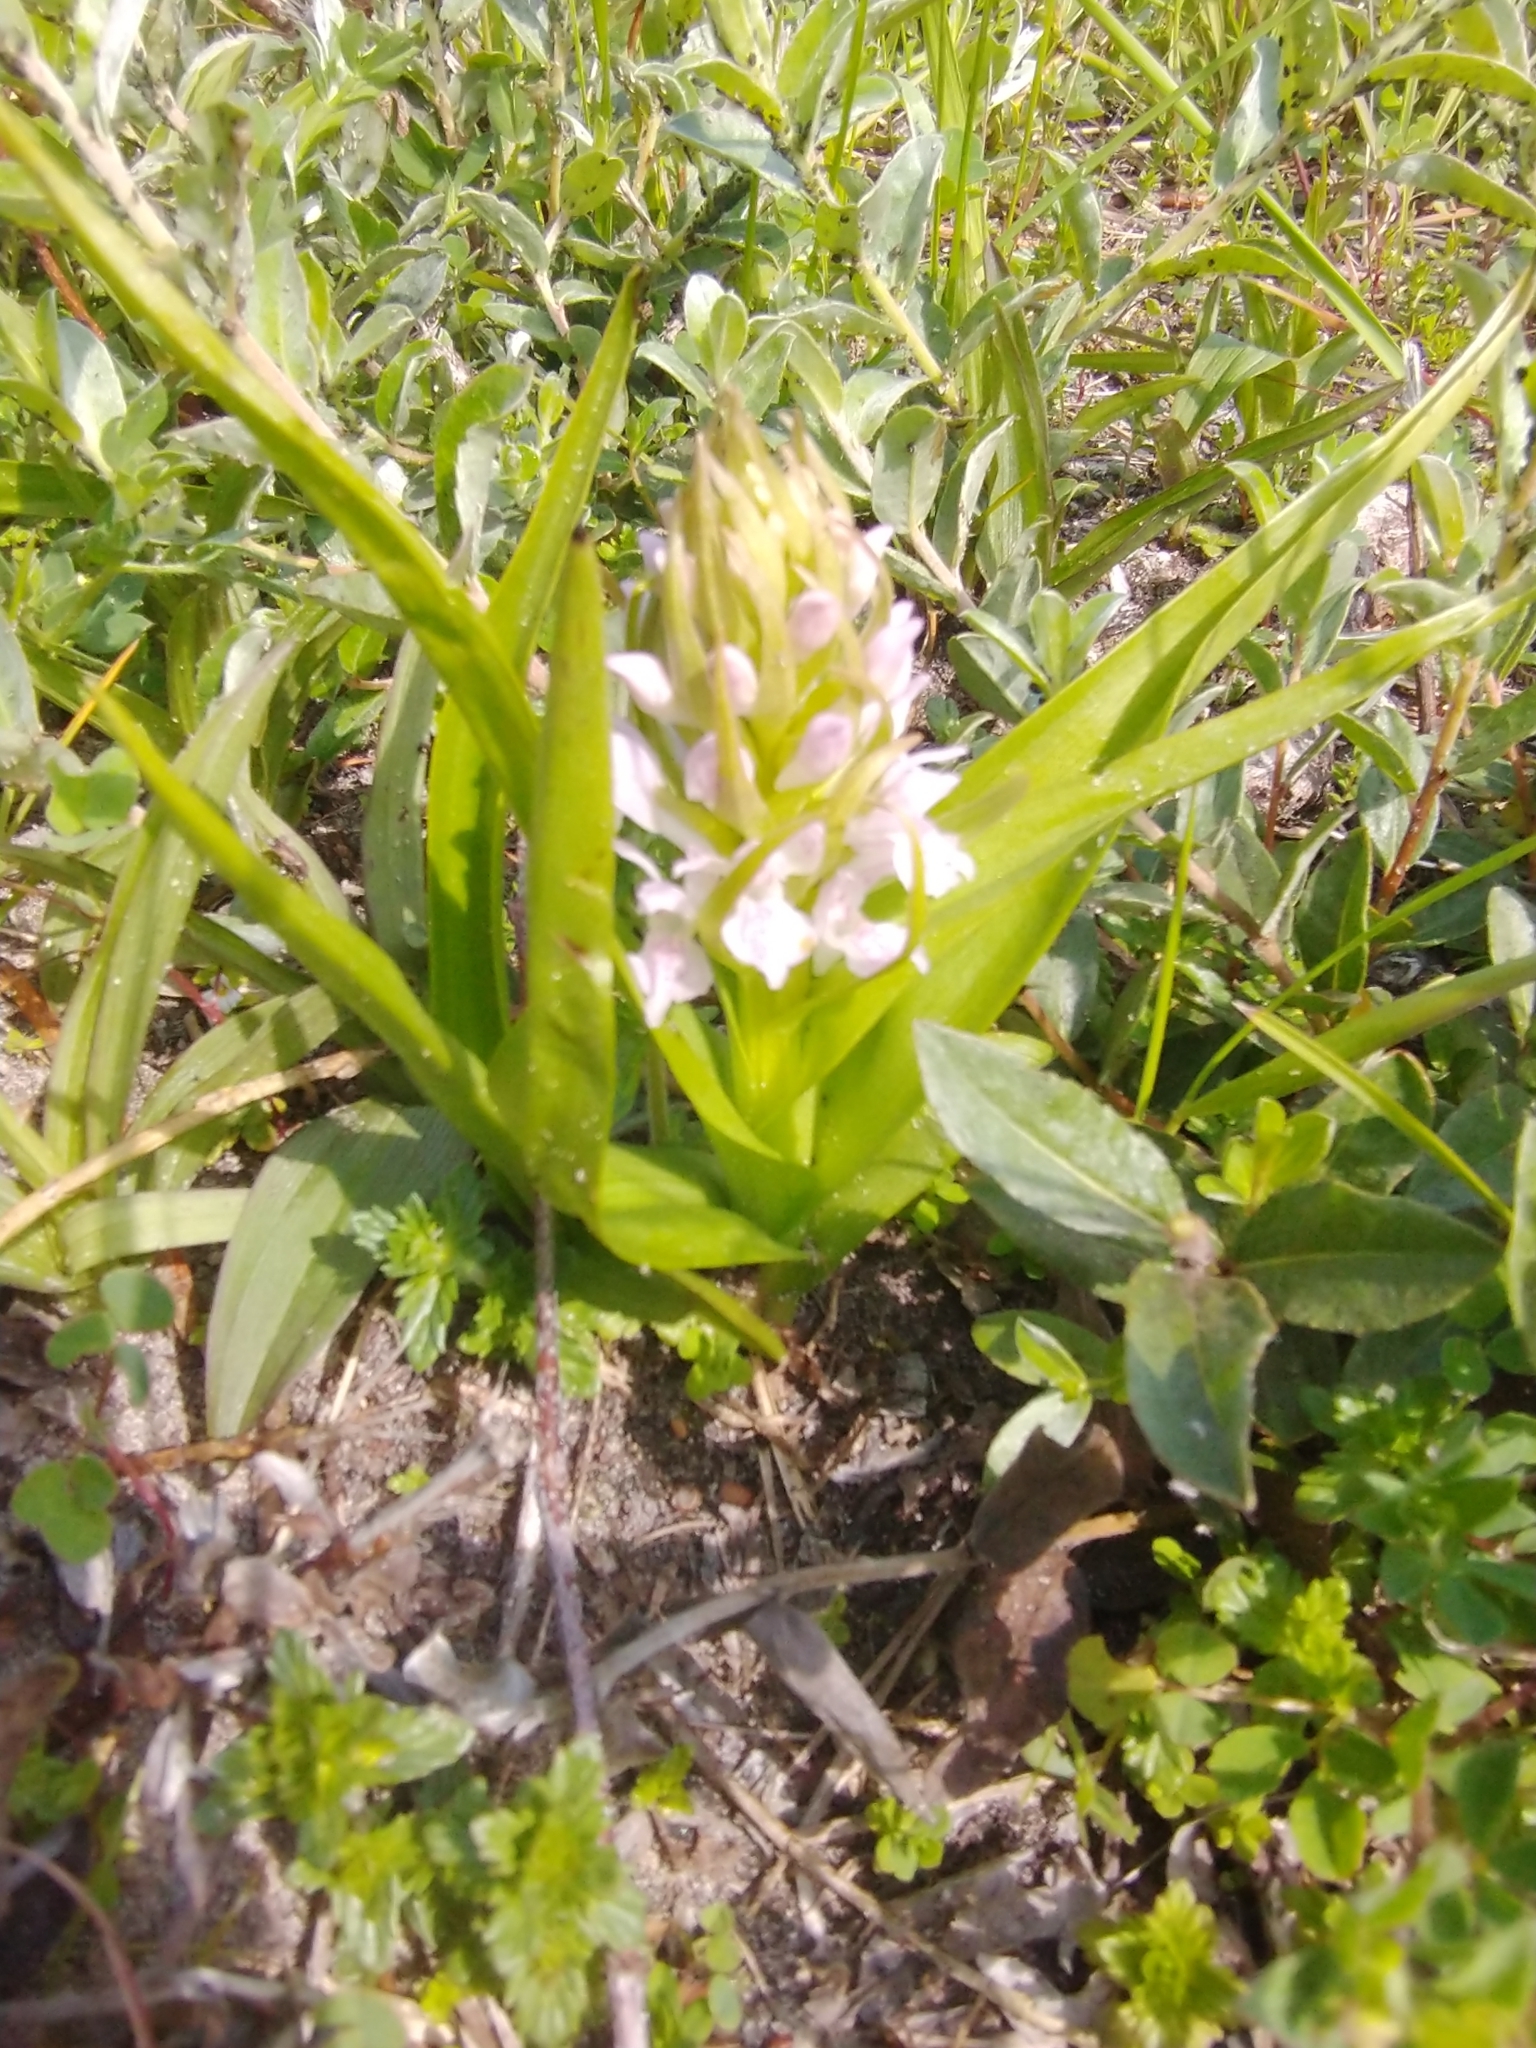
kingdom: Plantae
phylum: Tracheophyta
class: Liliopsida
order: Asparagales
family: Orchidaceae
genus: Dactylorhiza
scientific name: Dactylorhiza incarnata
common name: Early marsh-orchid
